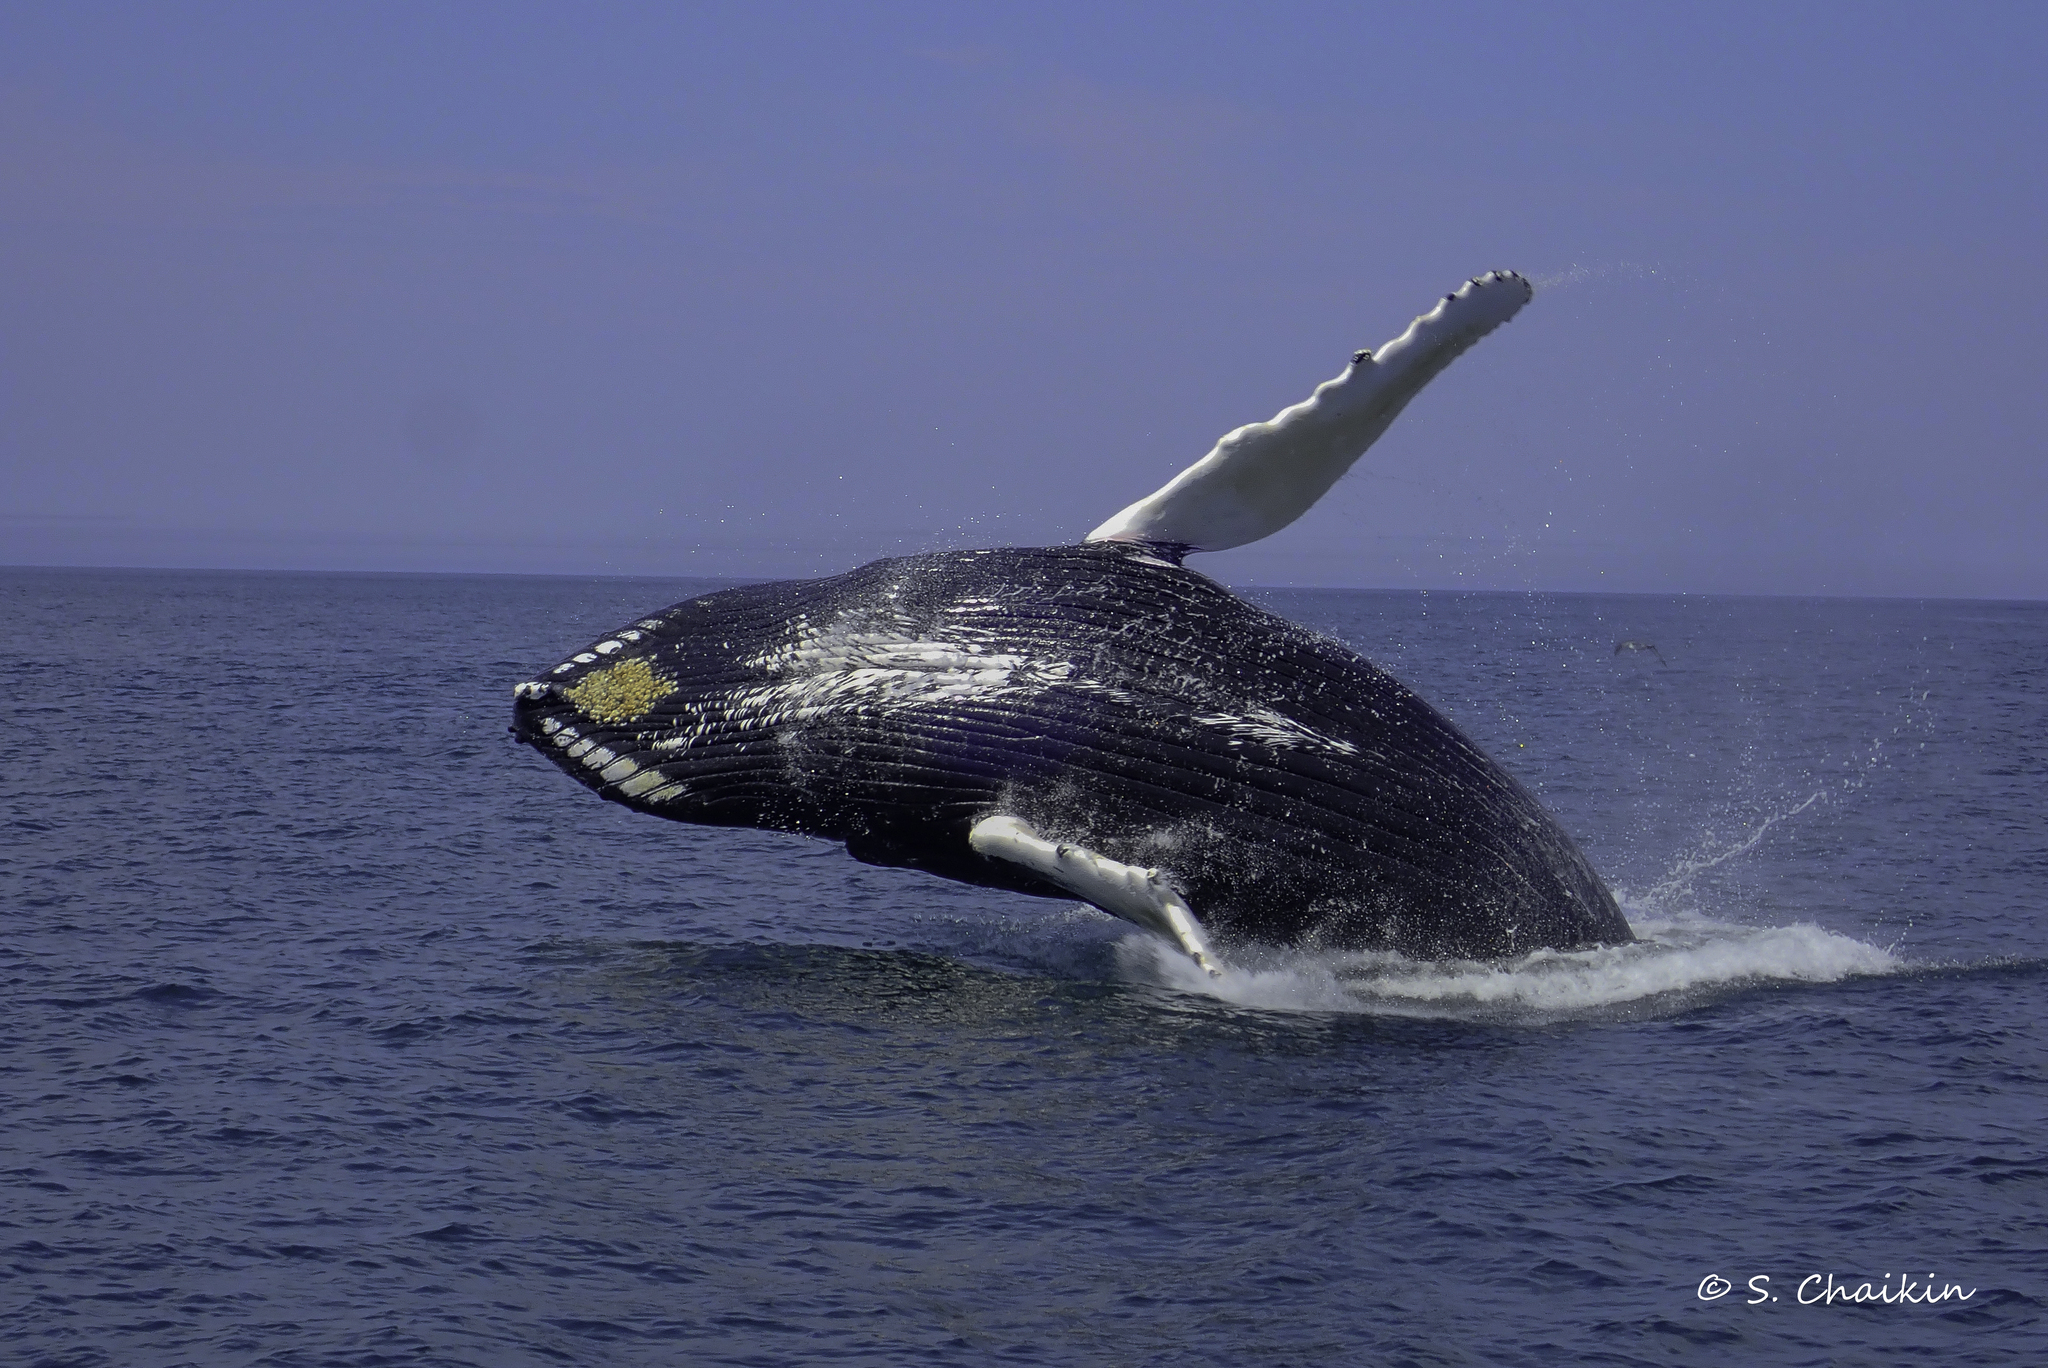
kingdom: Animalia
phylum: Chordata
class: Mammalia
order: Cetacea
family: Balaenopteridae
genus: Megaptera
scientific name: Megaptera novaeangliae
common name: Humpback whale
